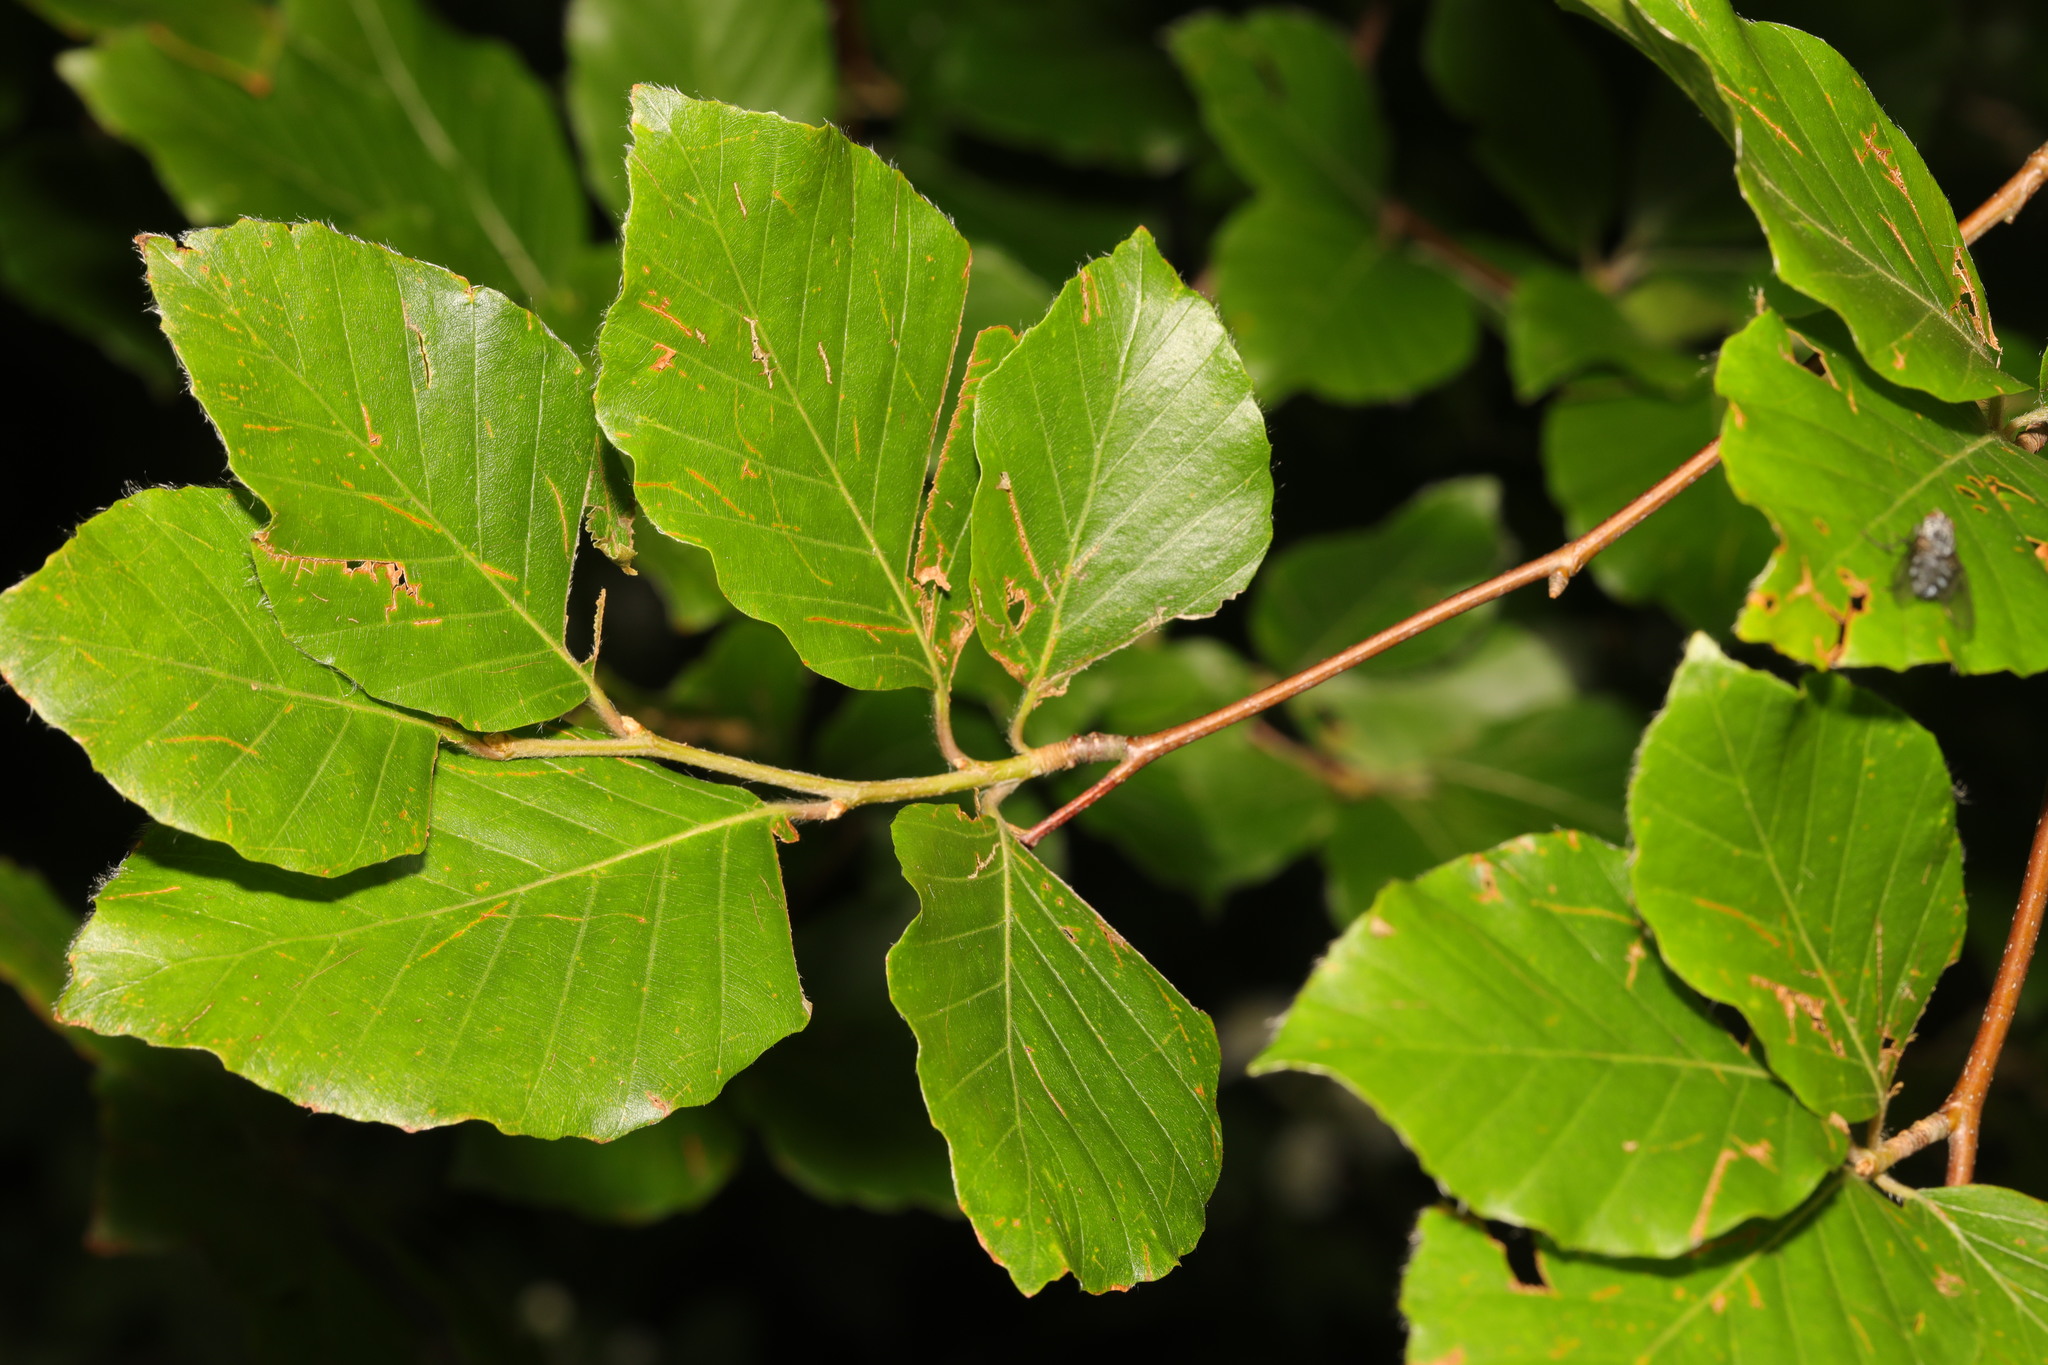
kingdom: Plantae
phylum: Tracheophyta
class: Magnoliopsida
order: Fagales
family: Fagaceae
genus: Fagus
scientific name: Fagus sylvatica
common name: Beech
